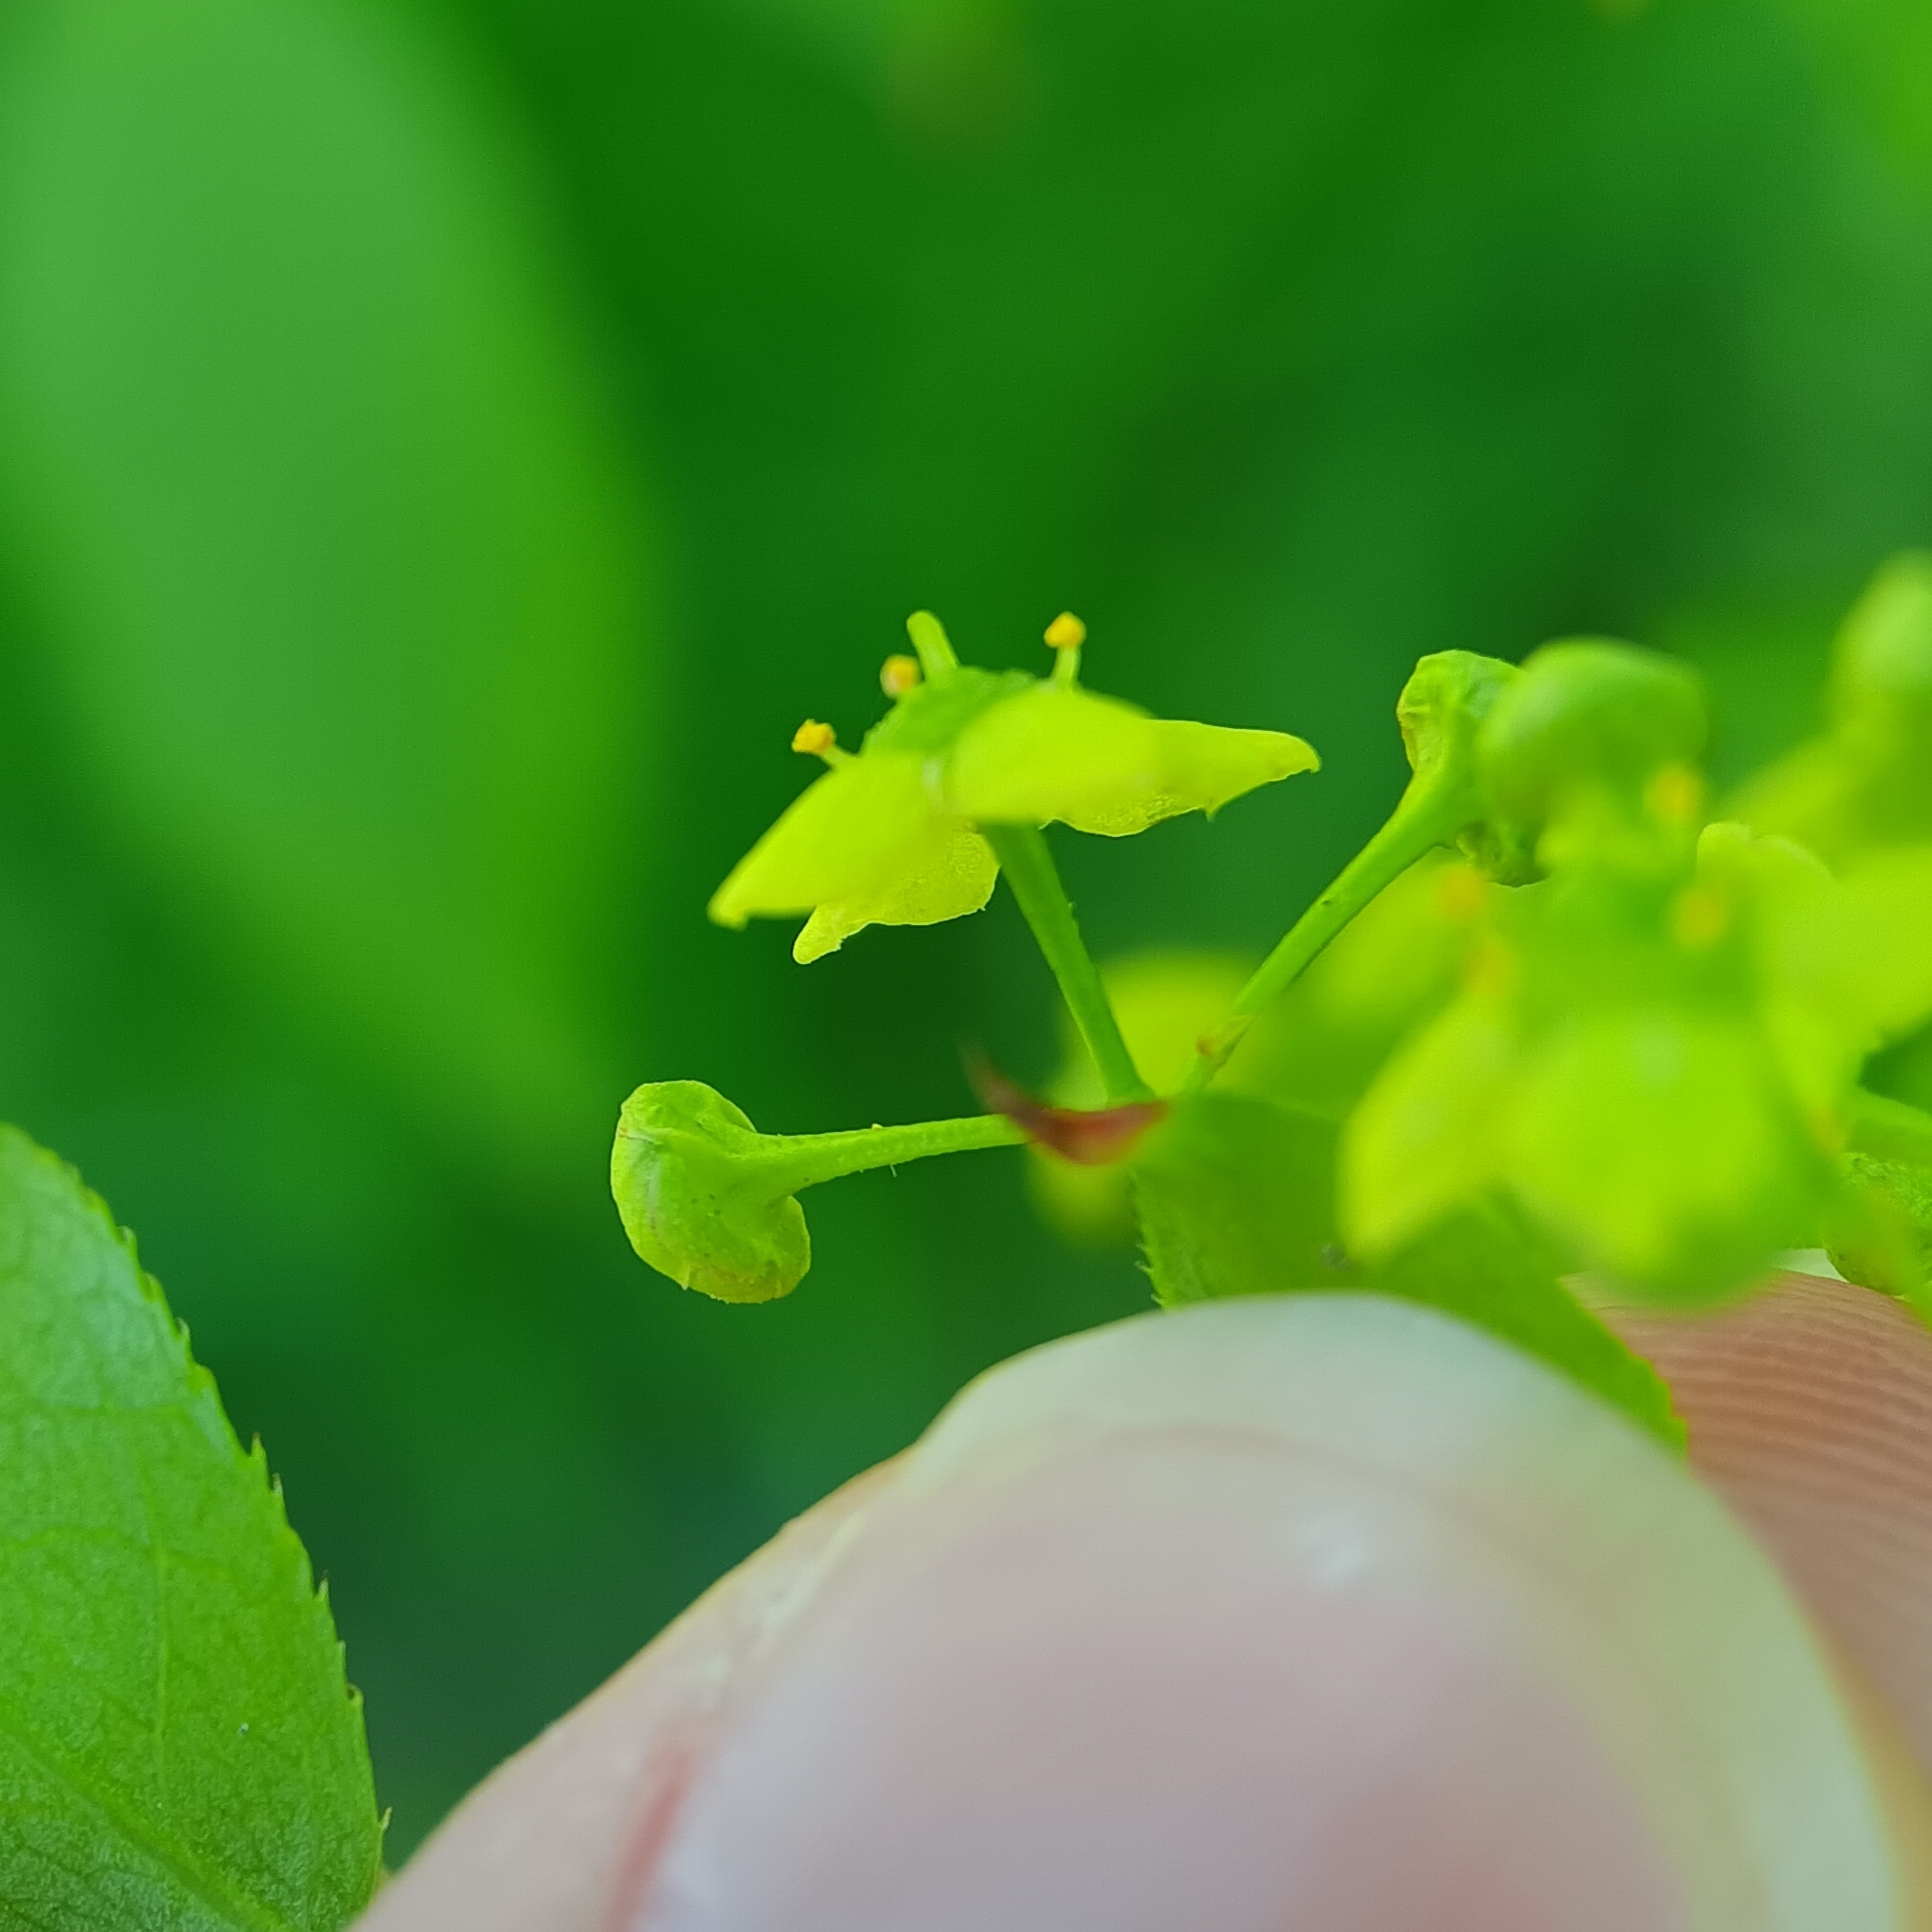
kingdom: Plantae
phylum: Tracheophyta
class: Magnoliopsida
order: Celastrales
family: Celastraceae
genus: Euonymus
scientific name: Euonymus alatus
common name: Winged euonymus
